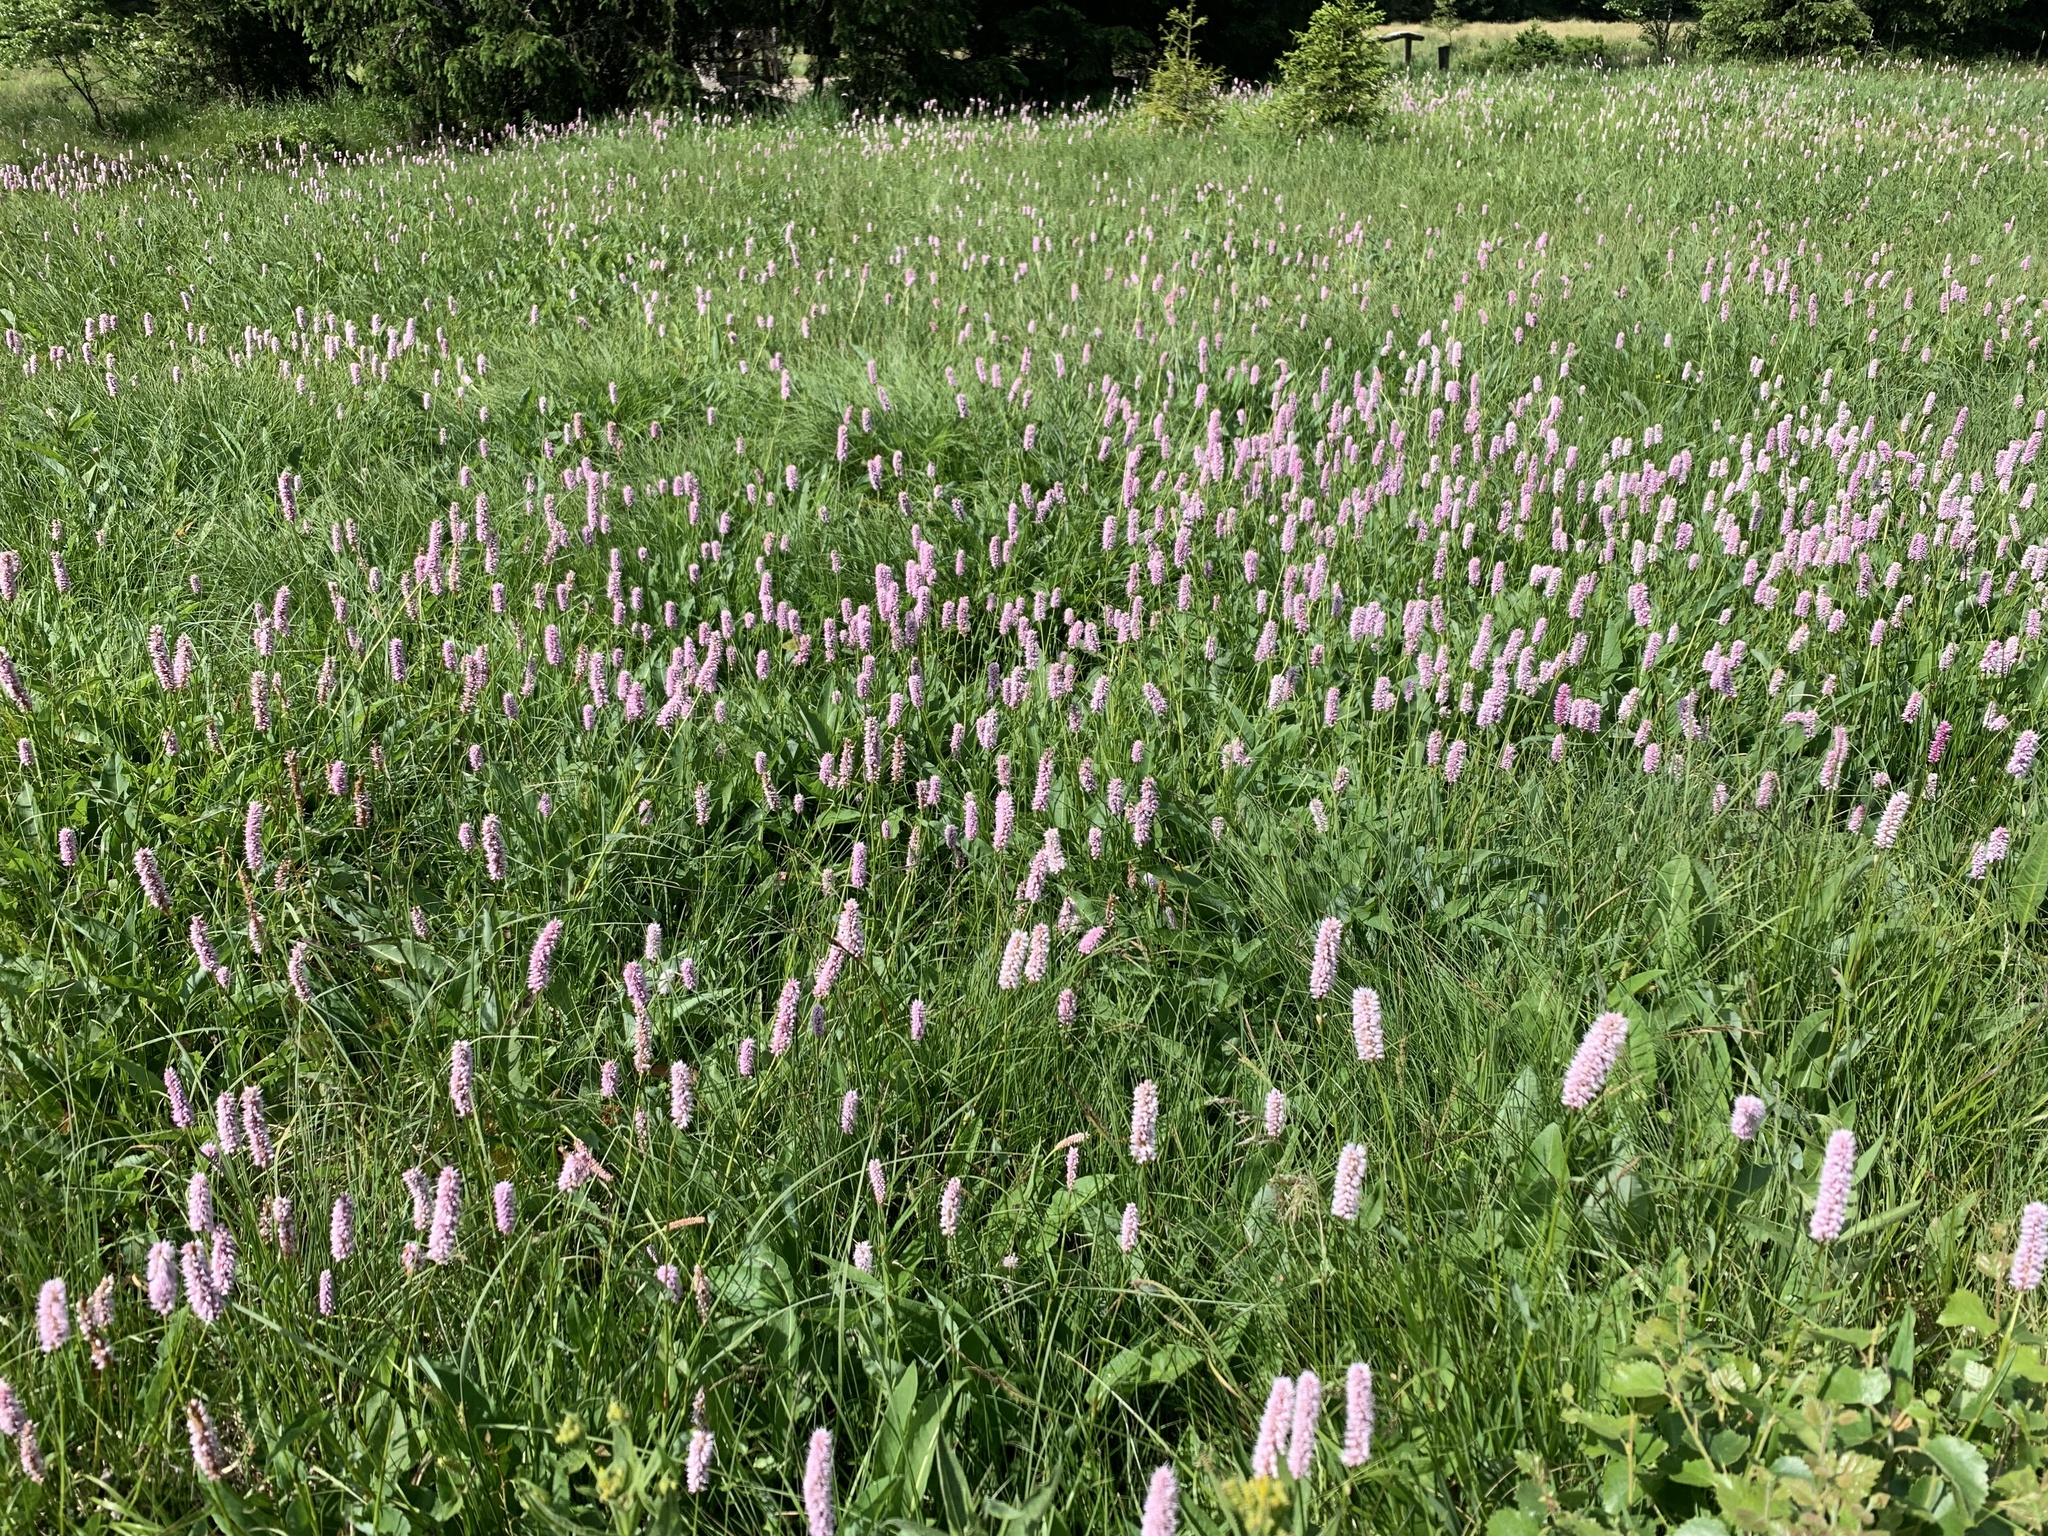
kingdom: Plantae
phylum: Tracheophyta
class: Magnoliopsida
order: Caryophyllales
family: Polygonaceae
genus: Bistorta
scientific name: Bistorta officinalis
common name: Common bistort
